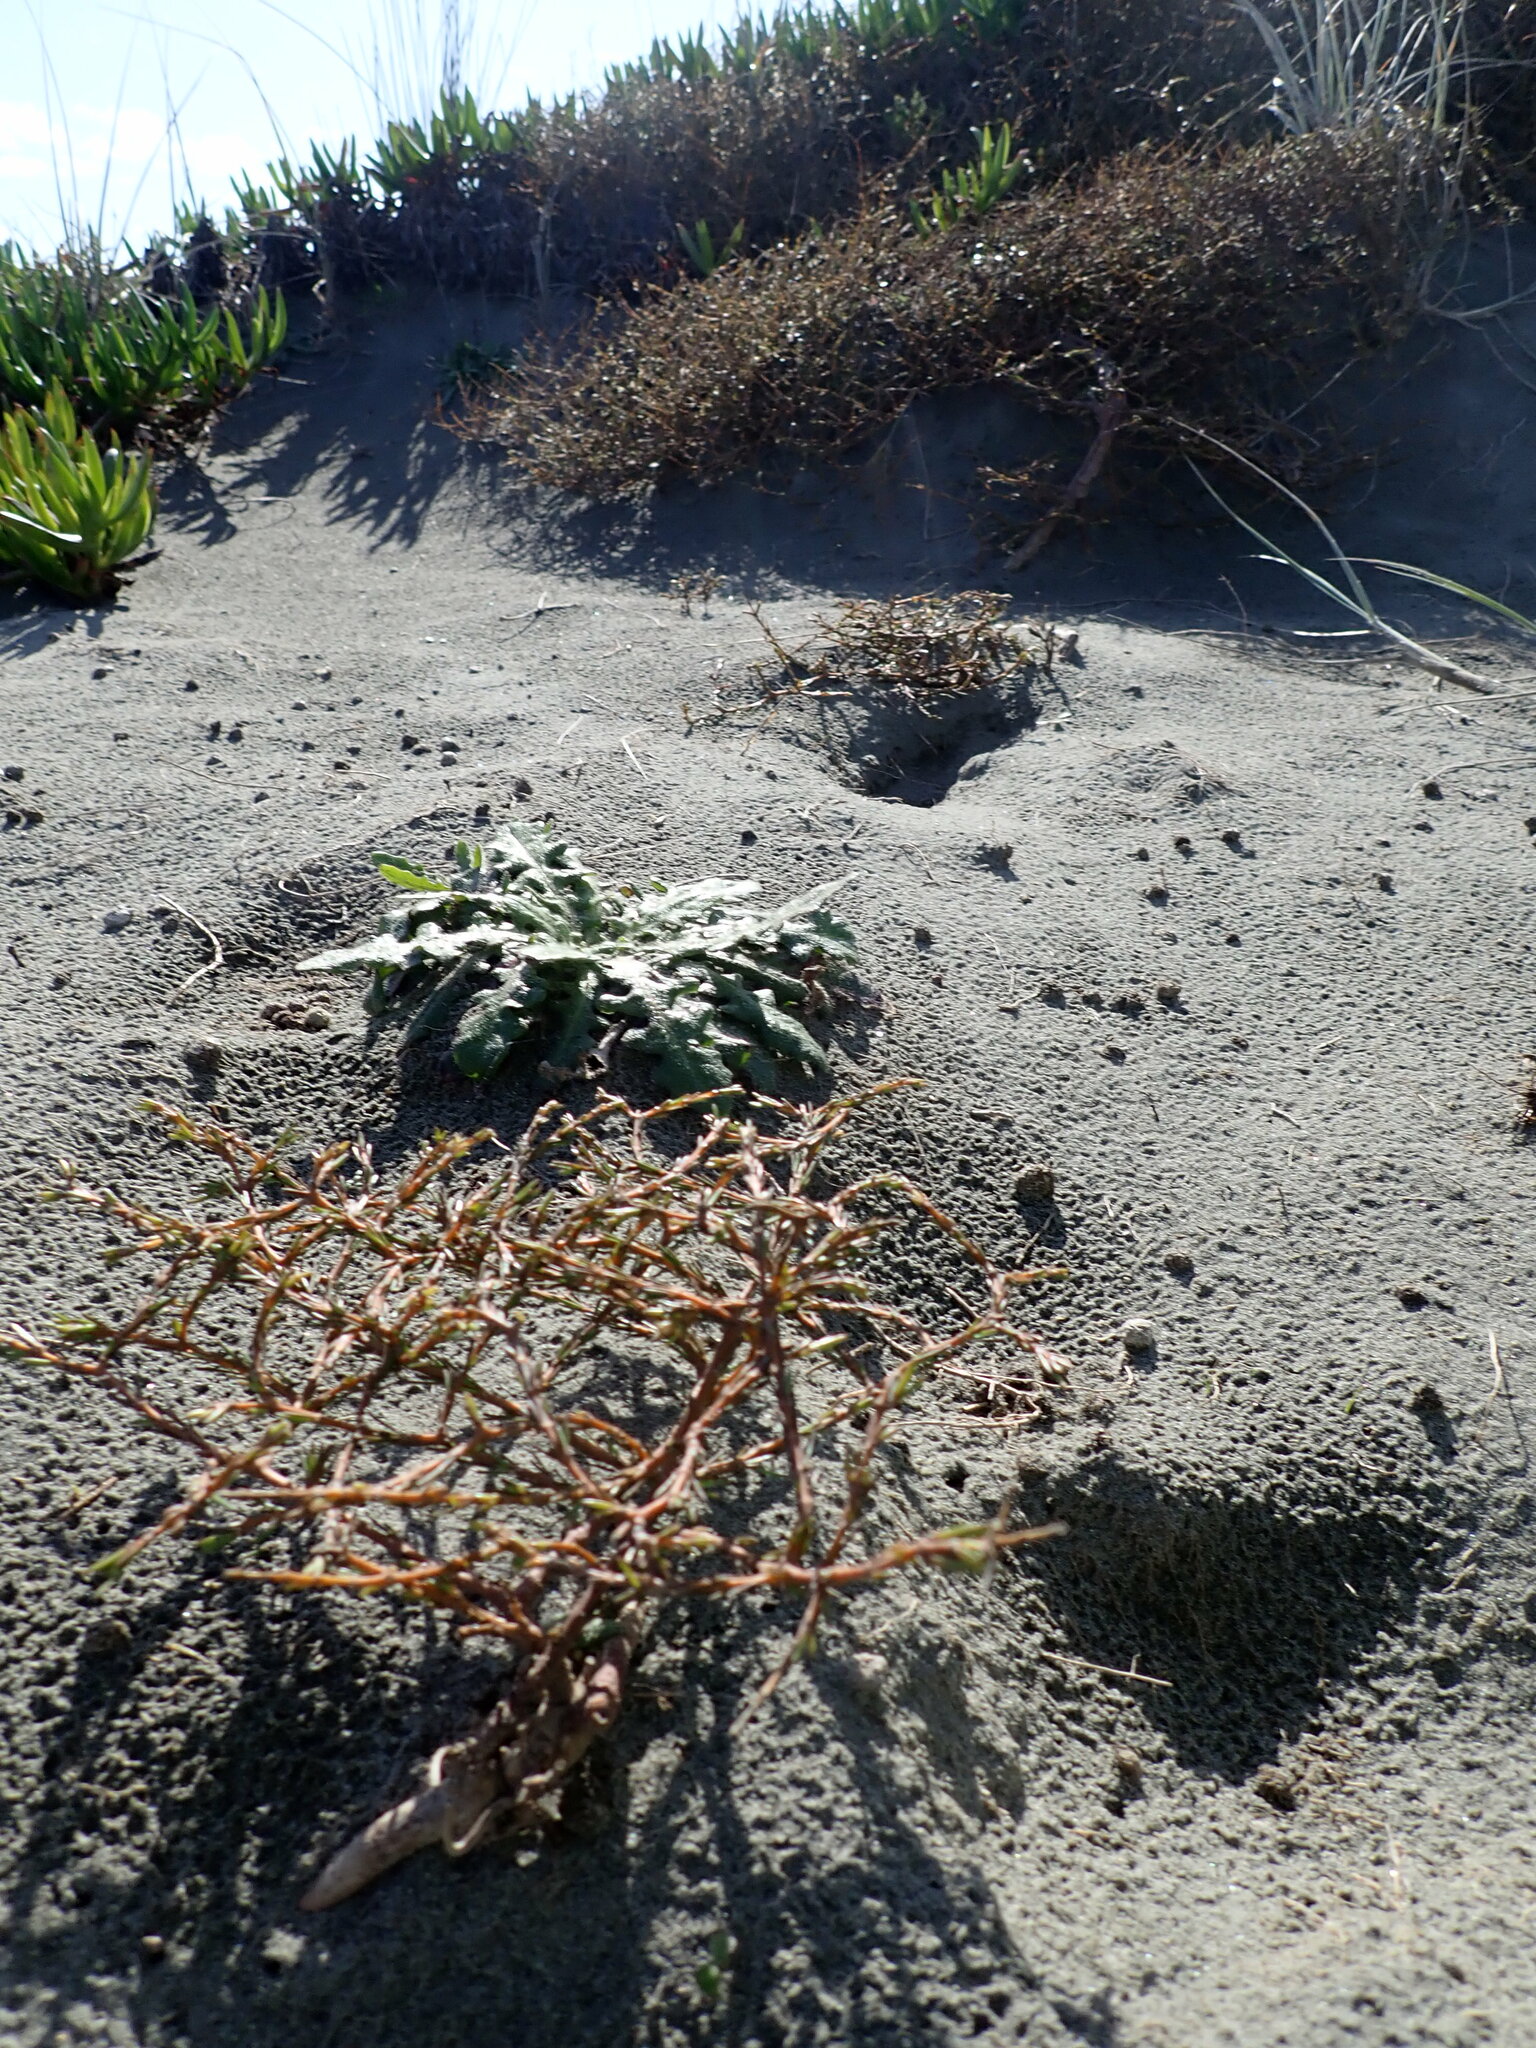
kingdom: Plantae
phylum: Tracheophyta
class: Magnoliopsida
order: Gentianales
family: Rubiaceae
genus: Coprosma
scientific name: Coprosma acerosa
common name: Sand coprosma
